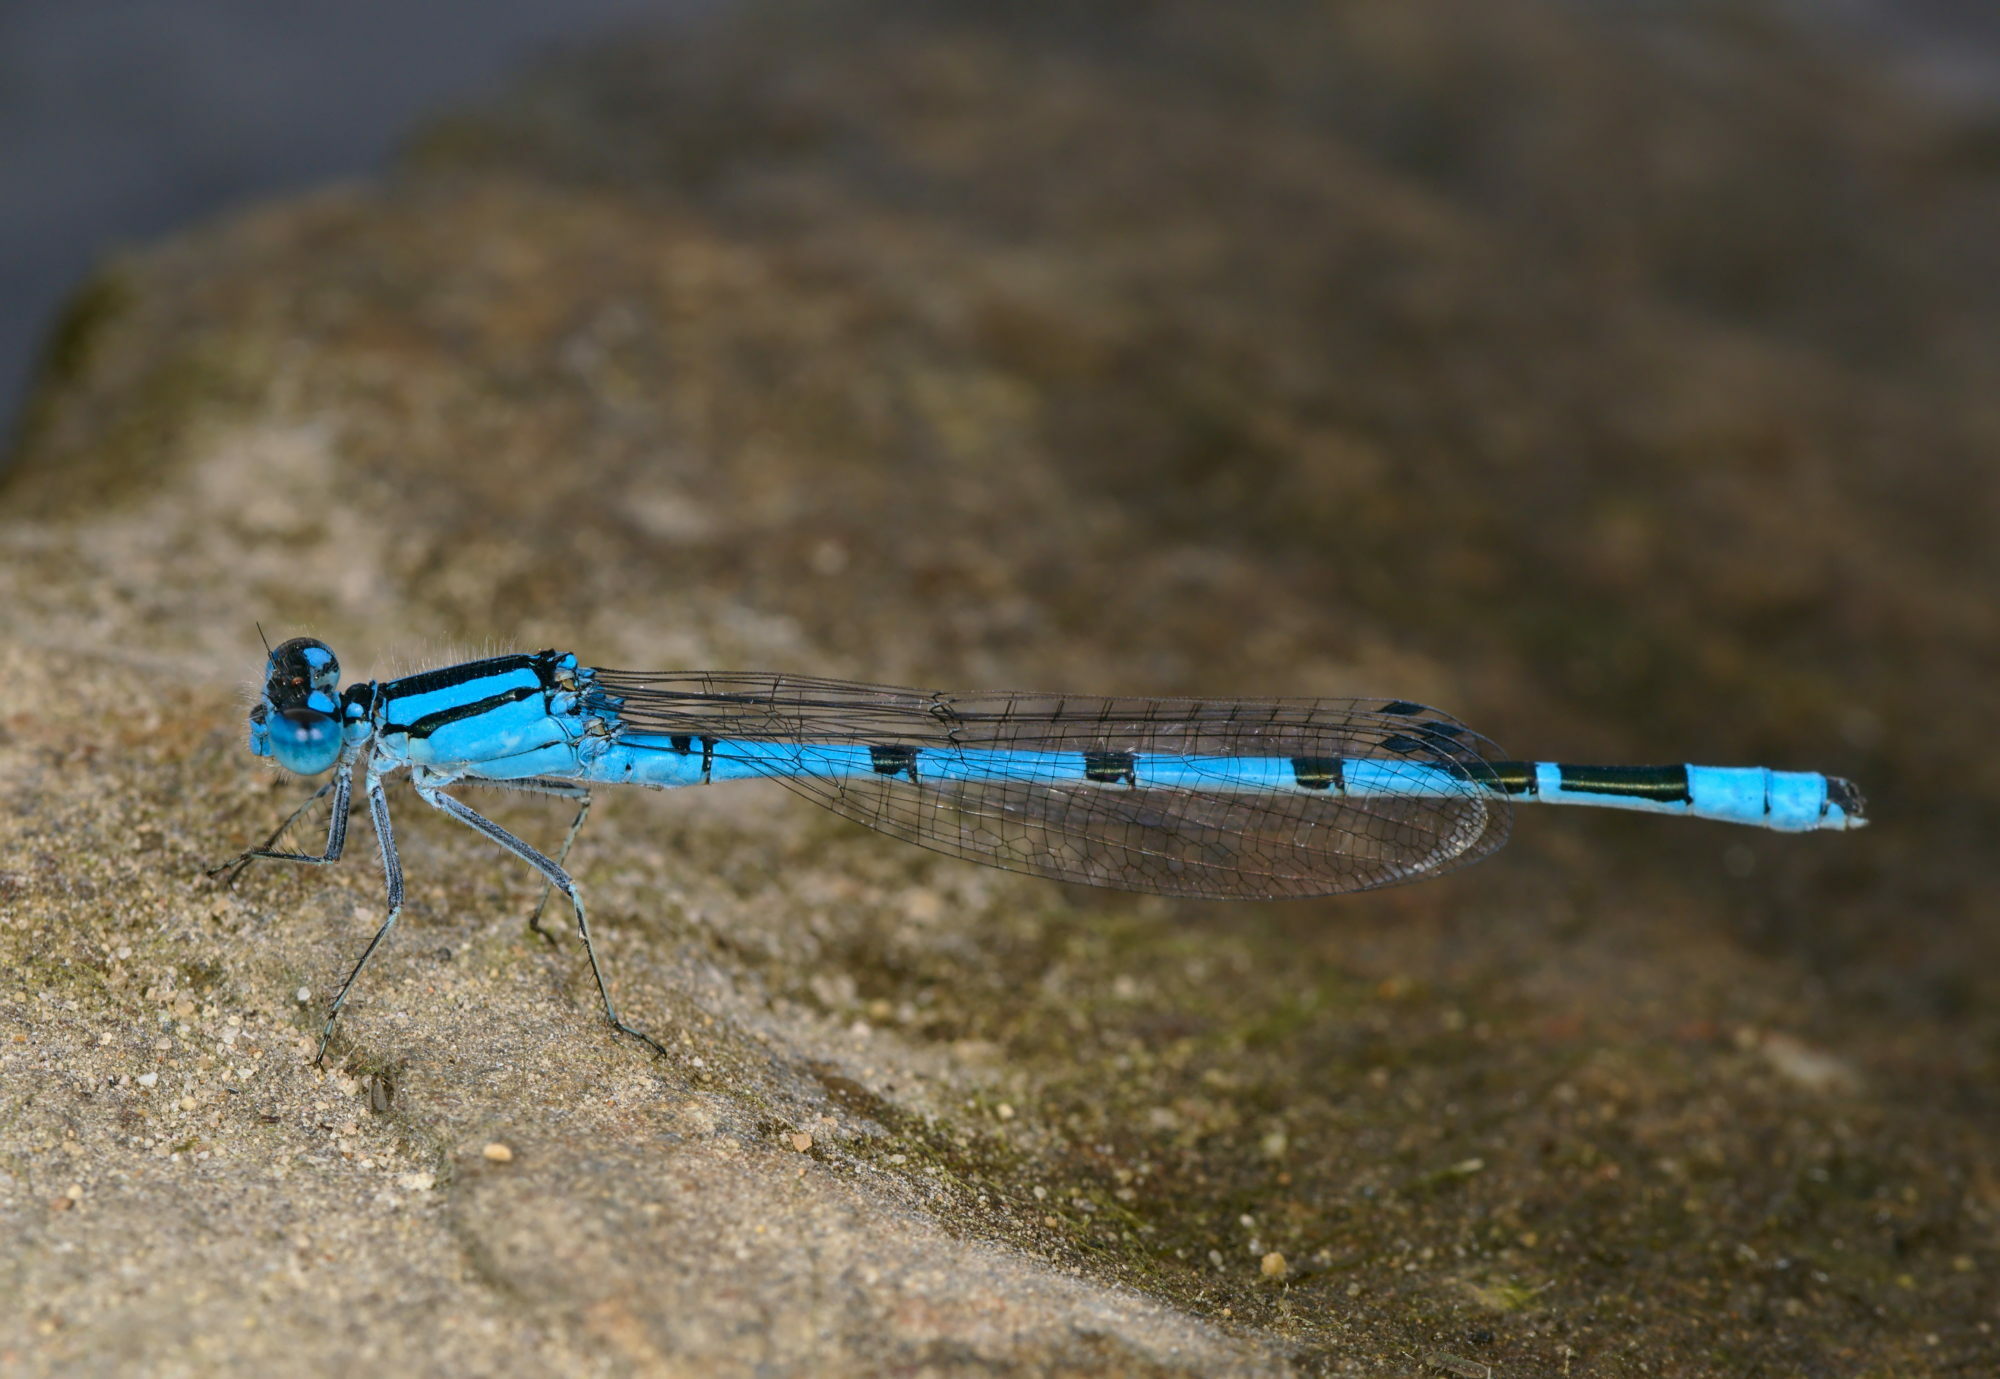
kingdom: Animalia
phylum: Arthropoda
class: Insecta
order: Odonata
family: Coenagrionidae
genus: Enallagma
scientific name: Enallagma cyathigerum
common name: Common blue damselfly
